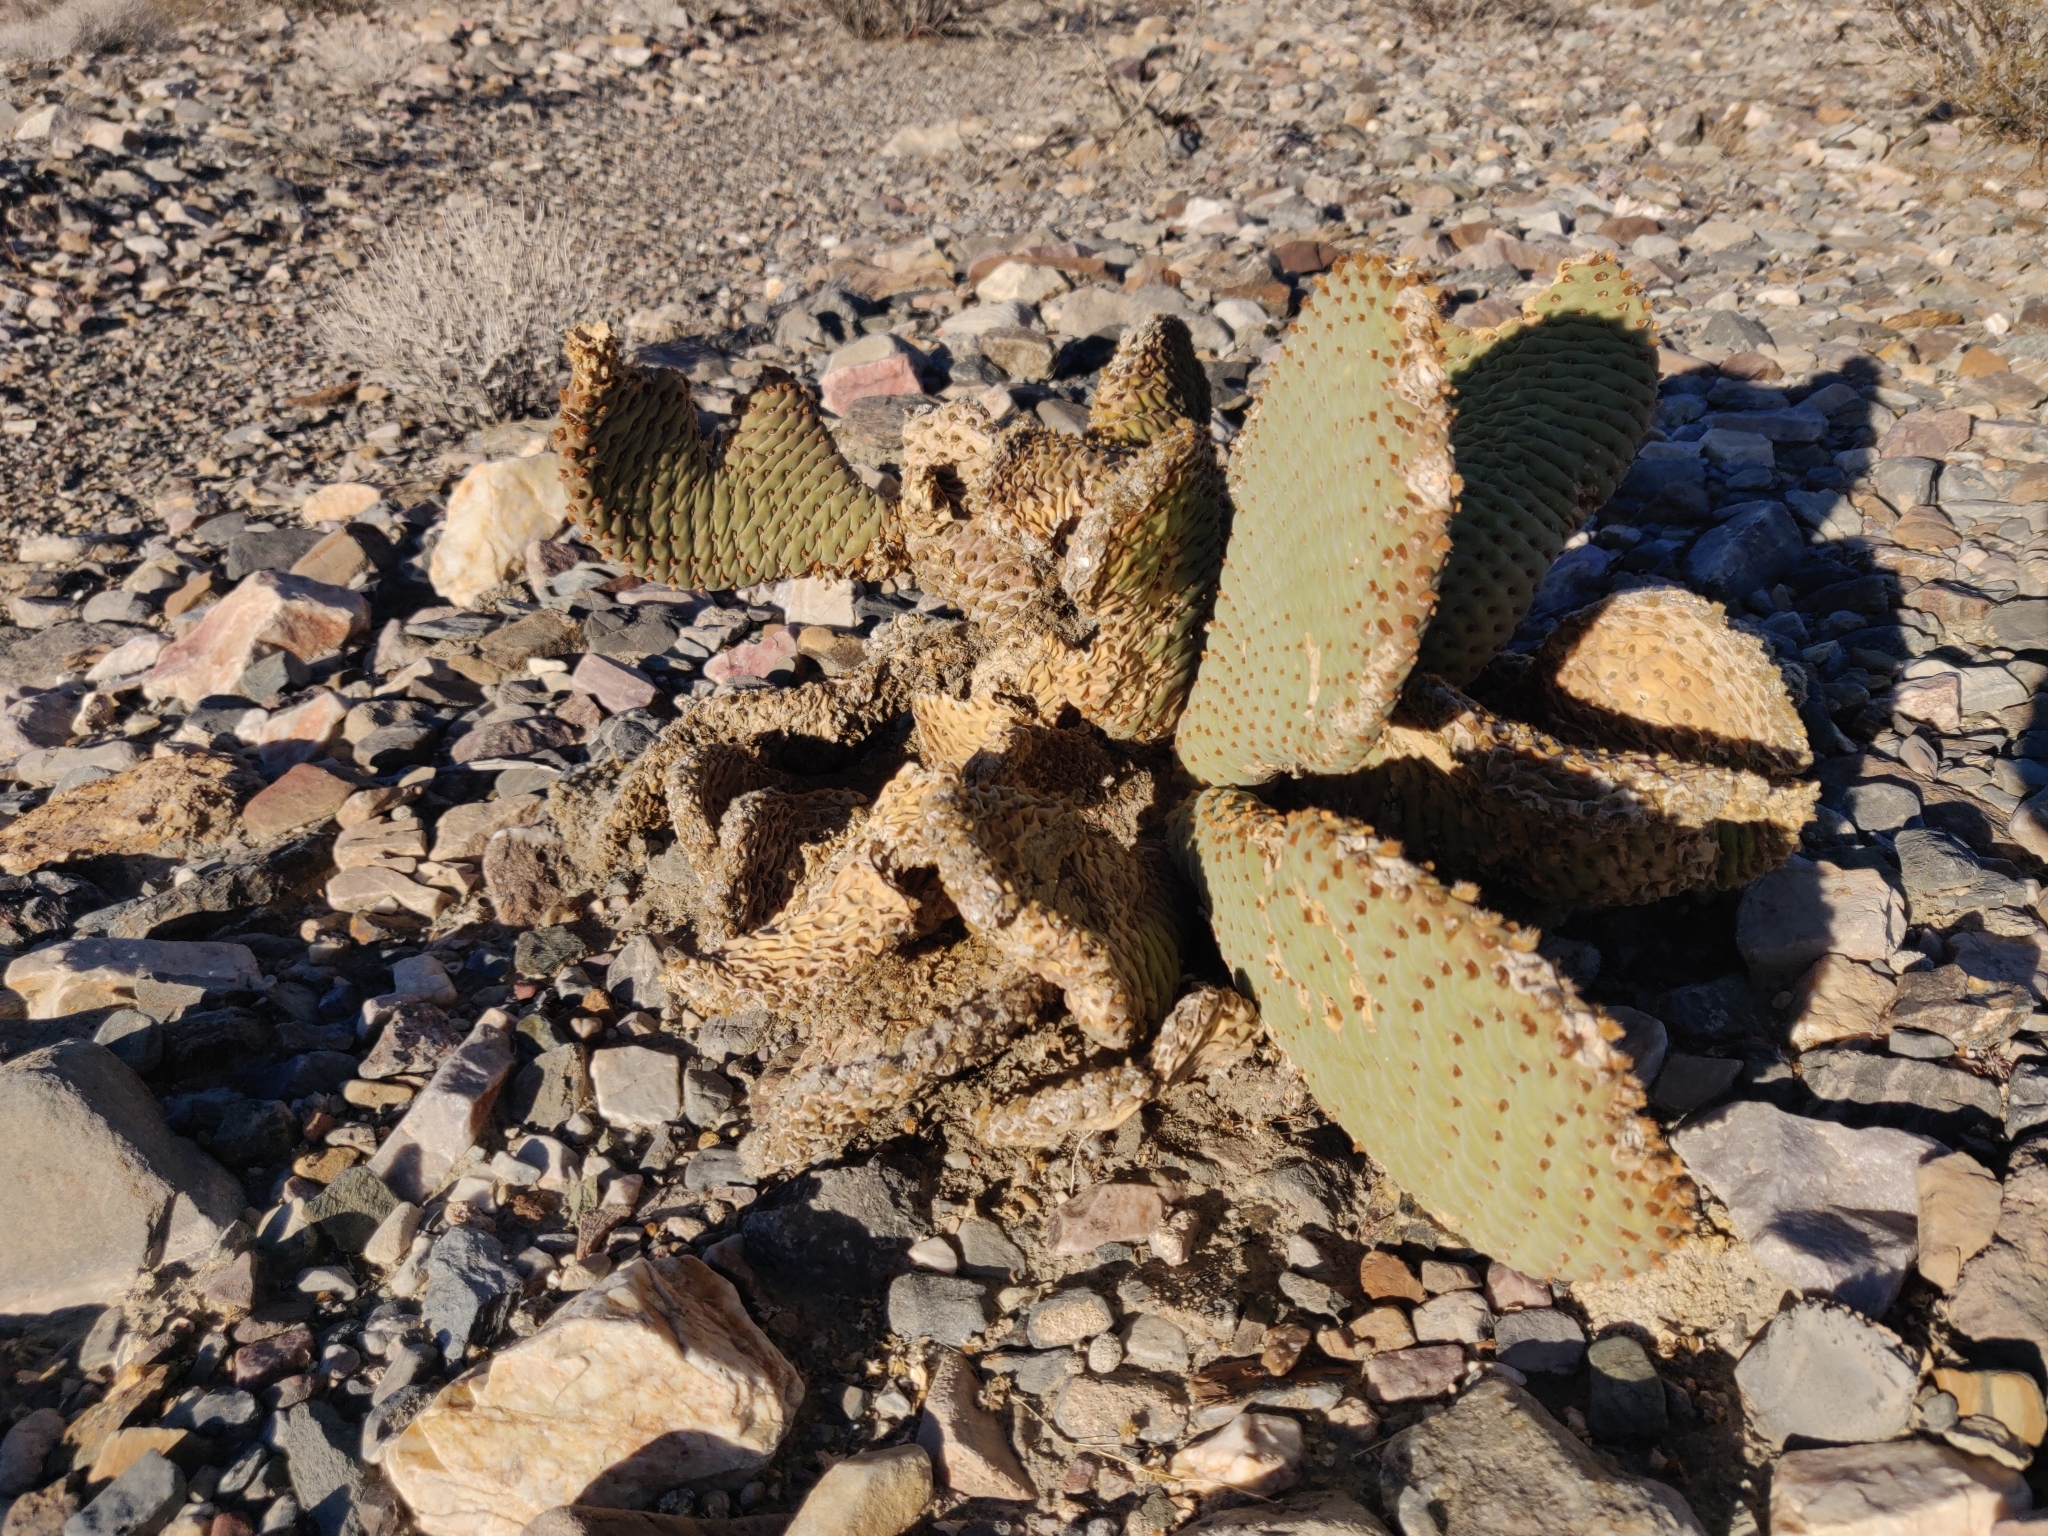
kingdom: Plantae
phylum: Tracheophyta
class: Magnoliopsida
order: Caryophyllales
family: Cactaceae
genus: Opuntia
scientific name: Opuntia basilaris
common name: Beavertail prickly-pear
